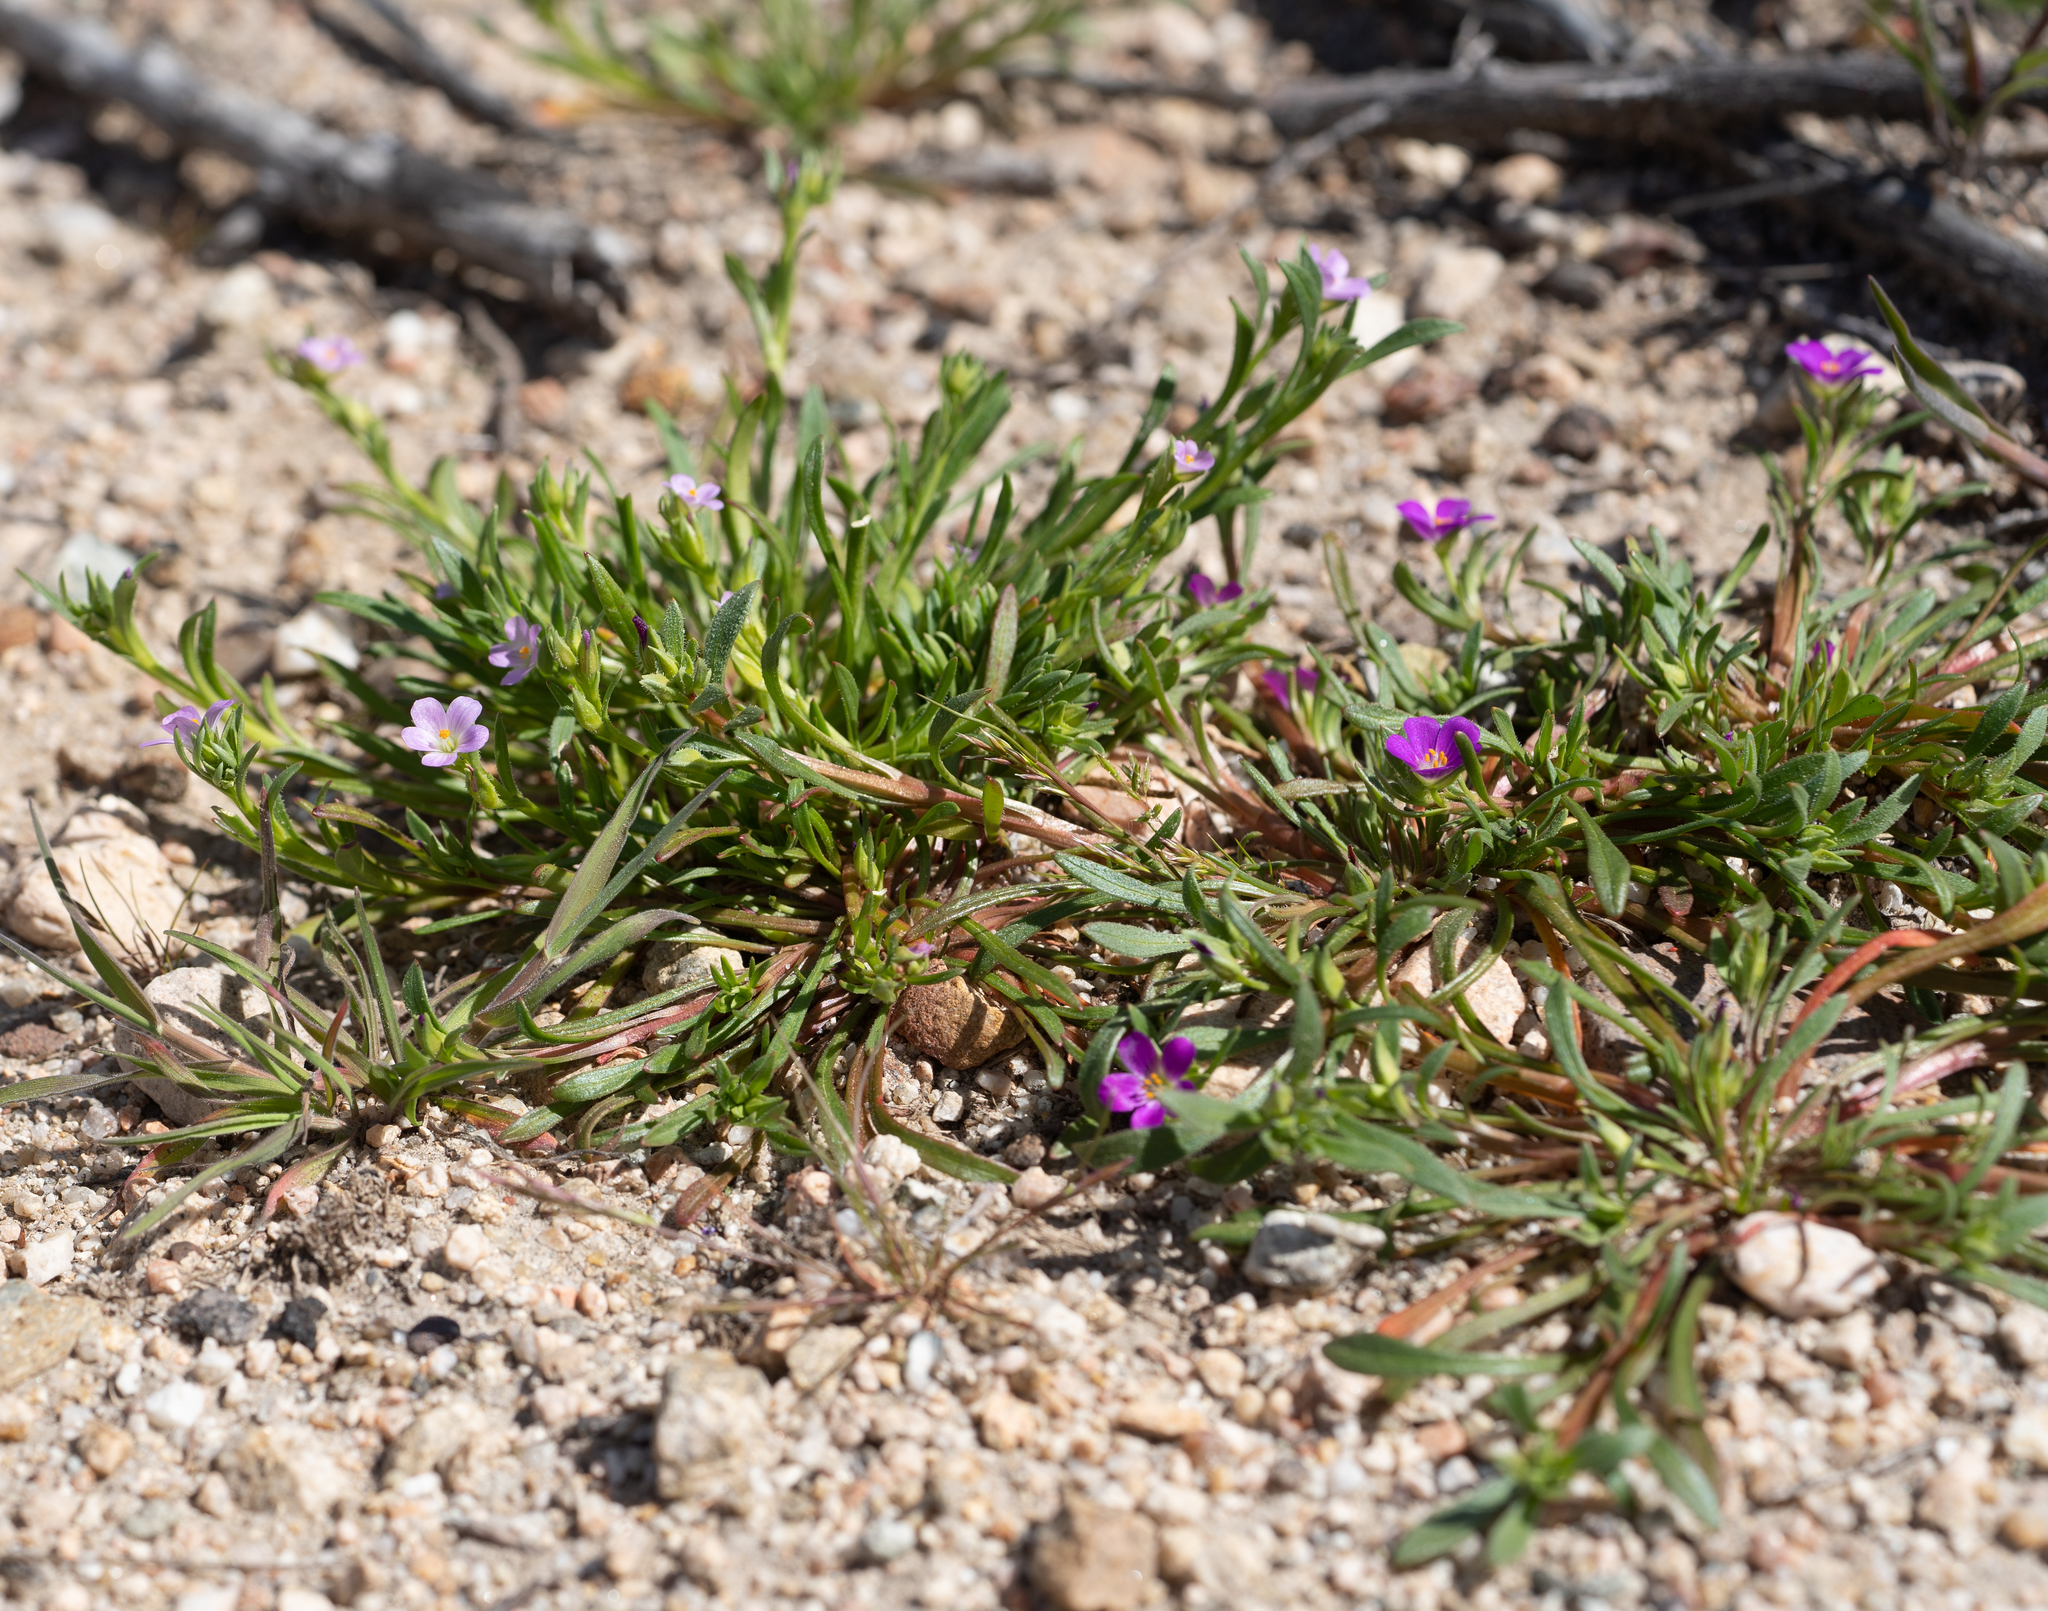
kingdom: Plantae
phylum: Tracheophyta
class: Magnoliopsida
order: Caryophyllales
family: Montiaceae
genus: Calandrinia
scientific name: Calandrinia menziesii
